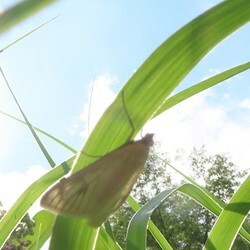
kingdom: Animalia
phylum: Arthropoda
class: Insecta
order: Lepidoptera
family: Crambidae
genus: Sitochroa
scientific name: Sitochroa palealis
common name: Greenish-yellow sitochroa moth
